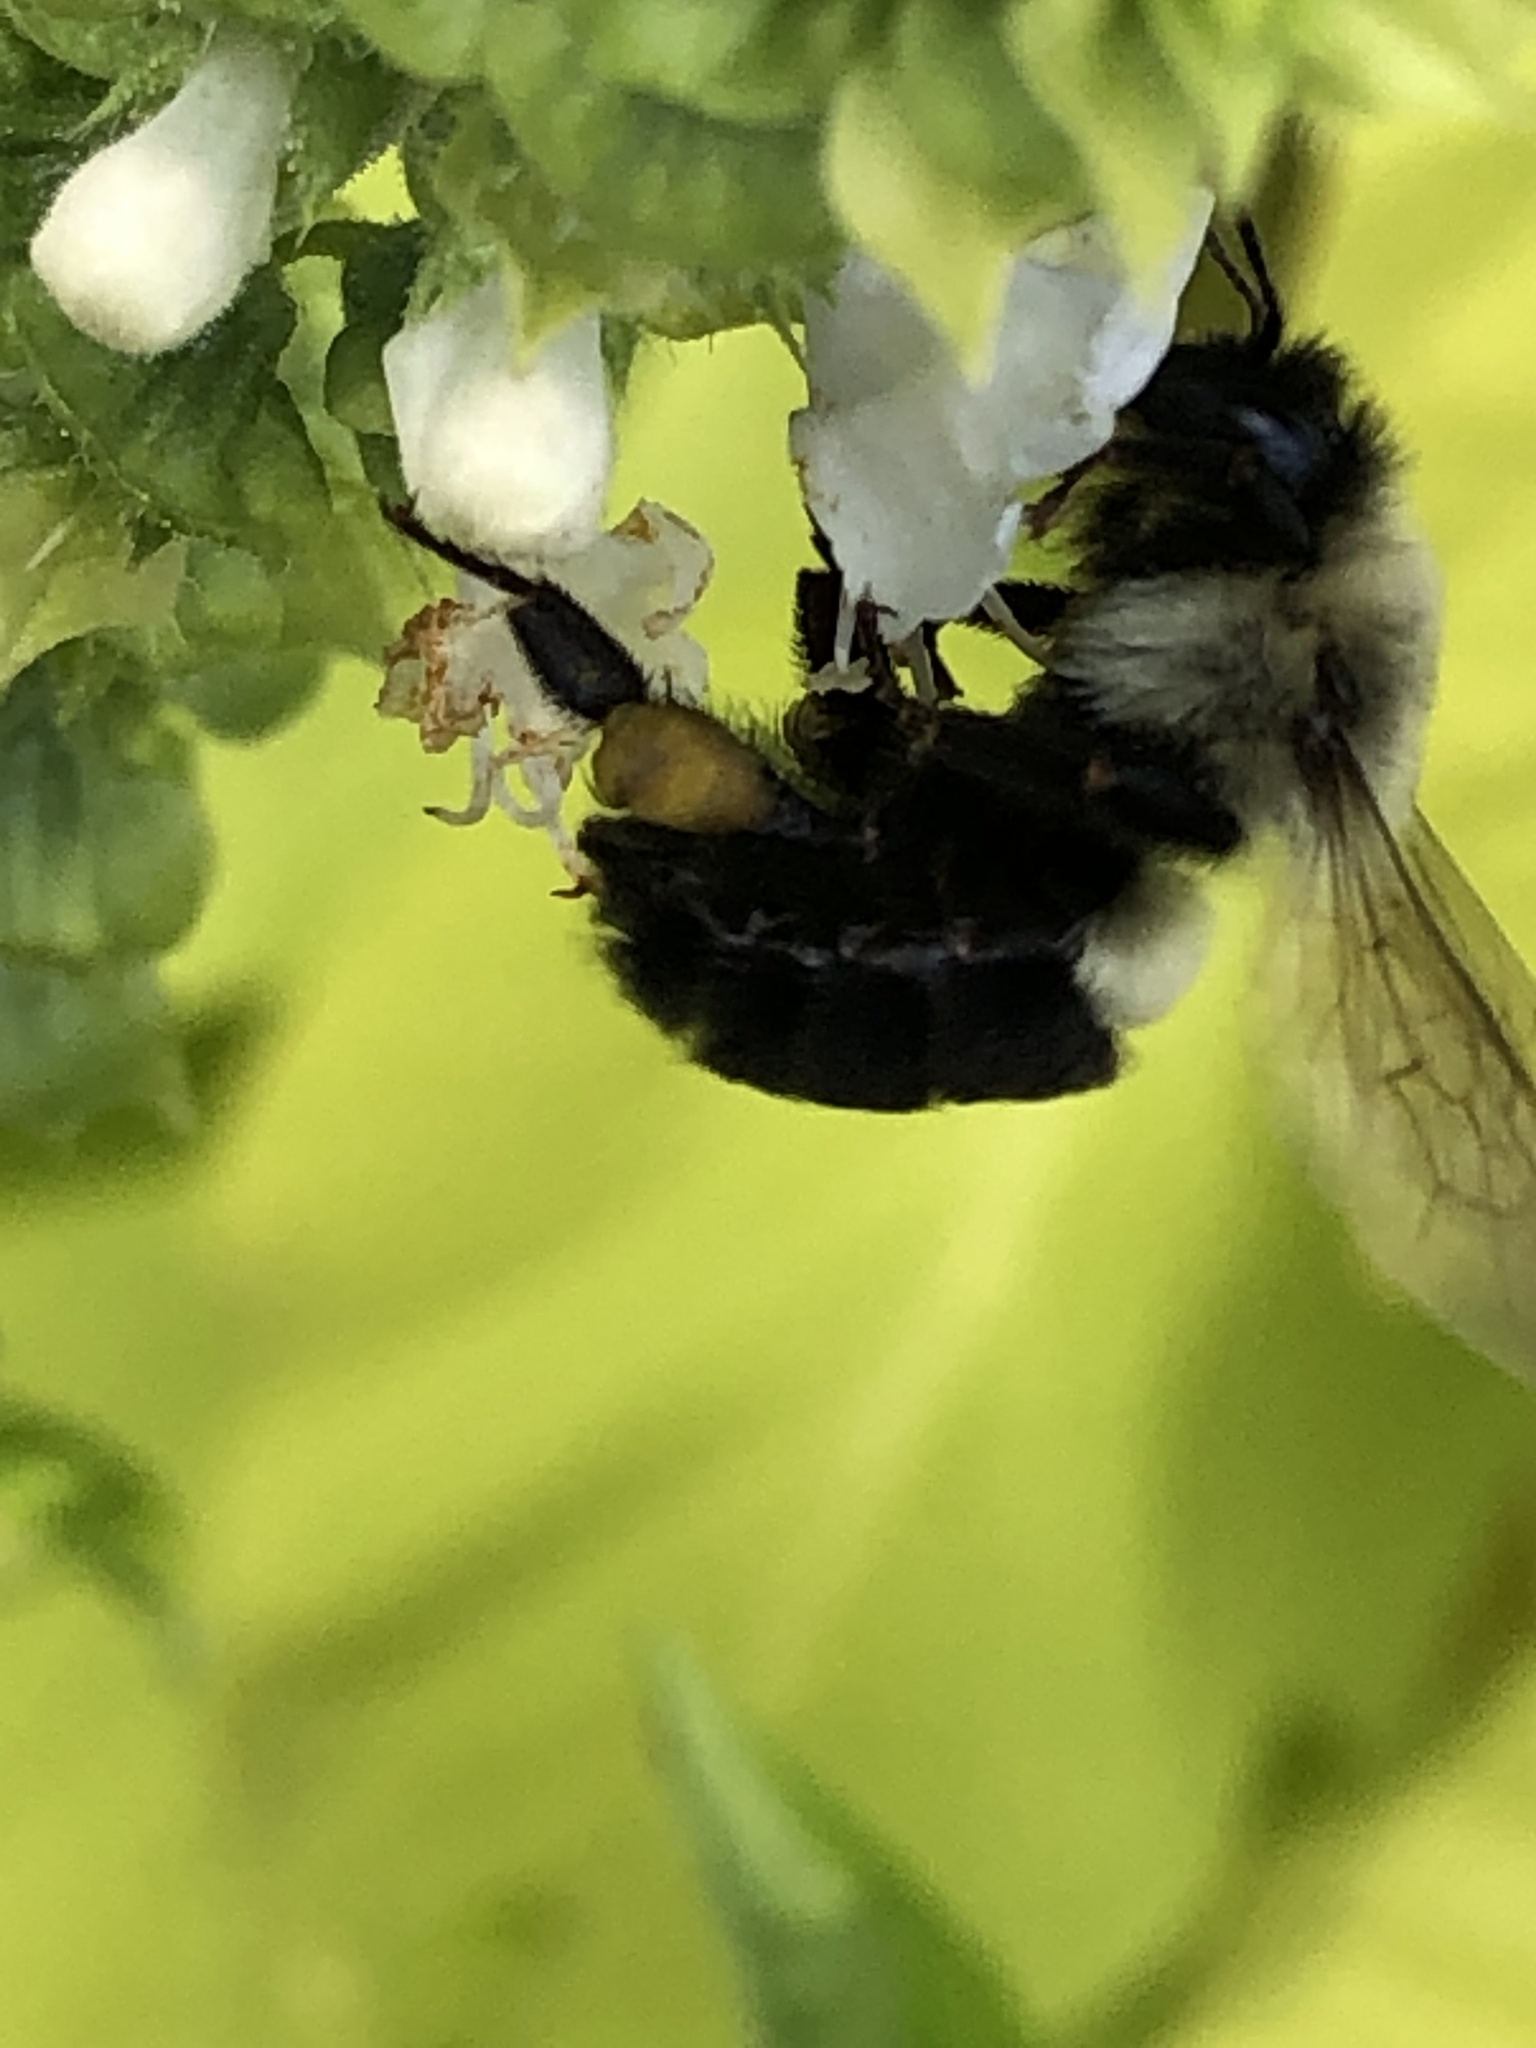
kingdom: Animalia
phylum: Arthropoda
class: Insecta
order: Hymenoptera
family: Apidae
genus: Bombus
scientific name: Bombus impatiens
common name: Common eastern bumble bee
